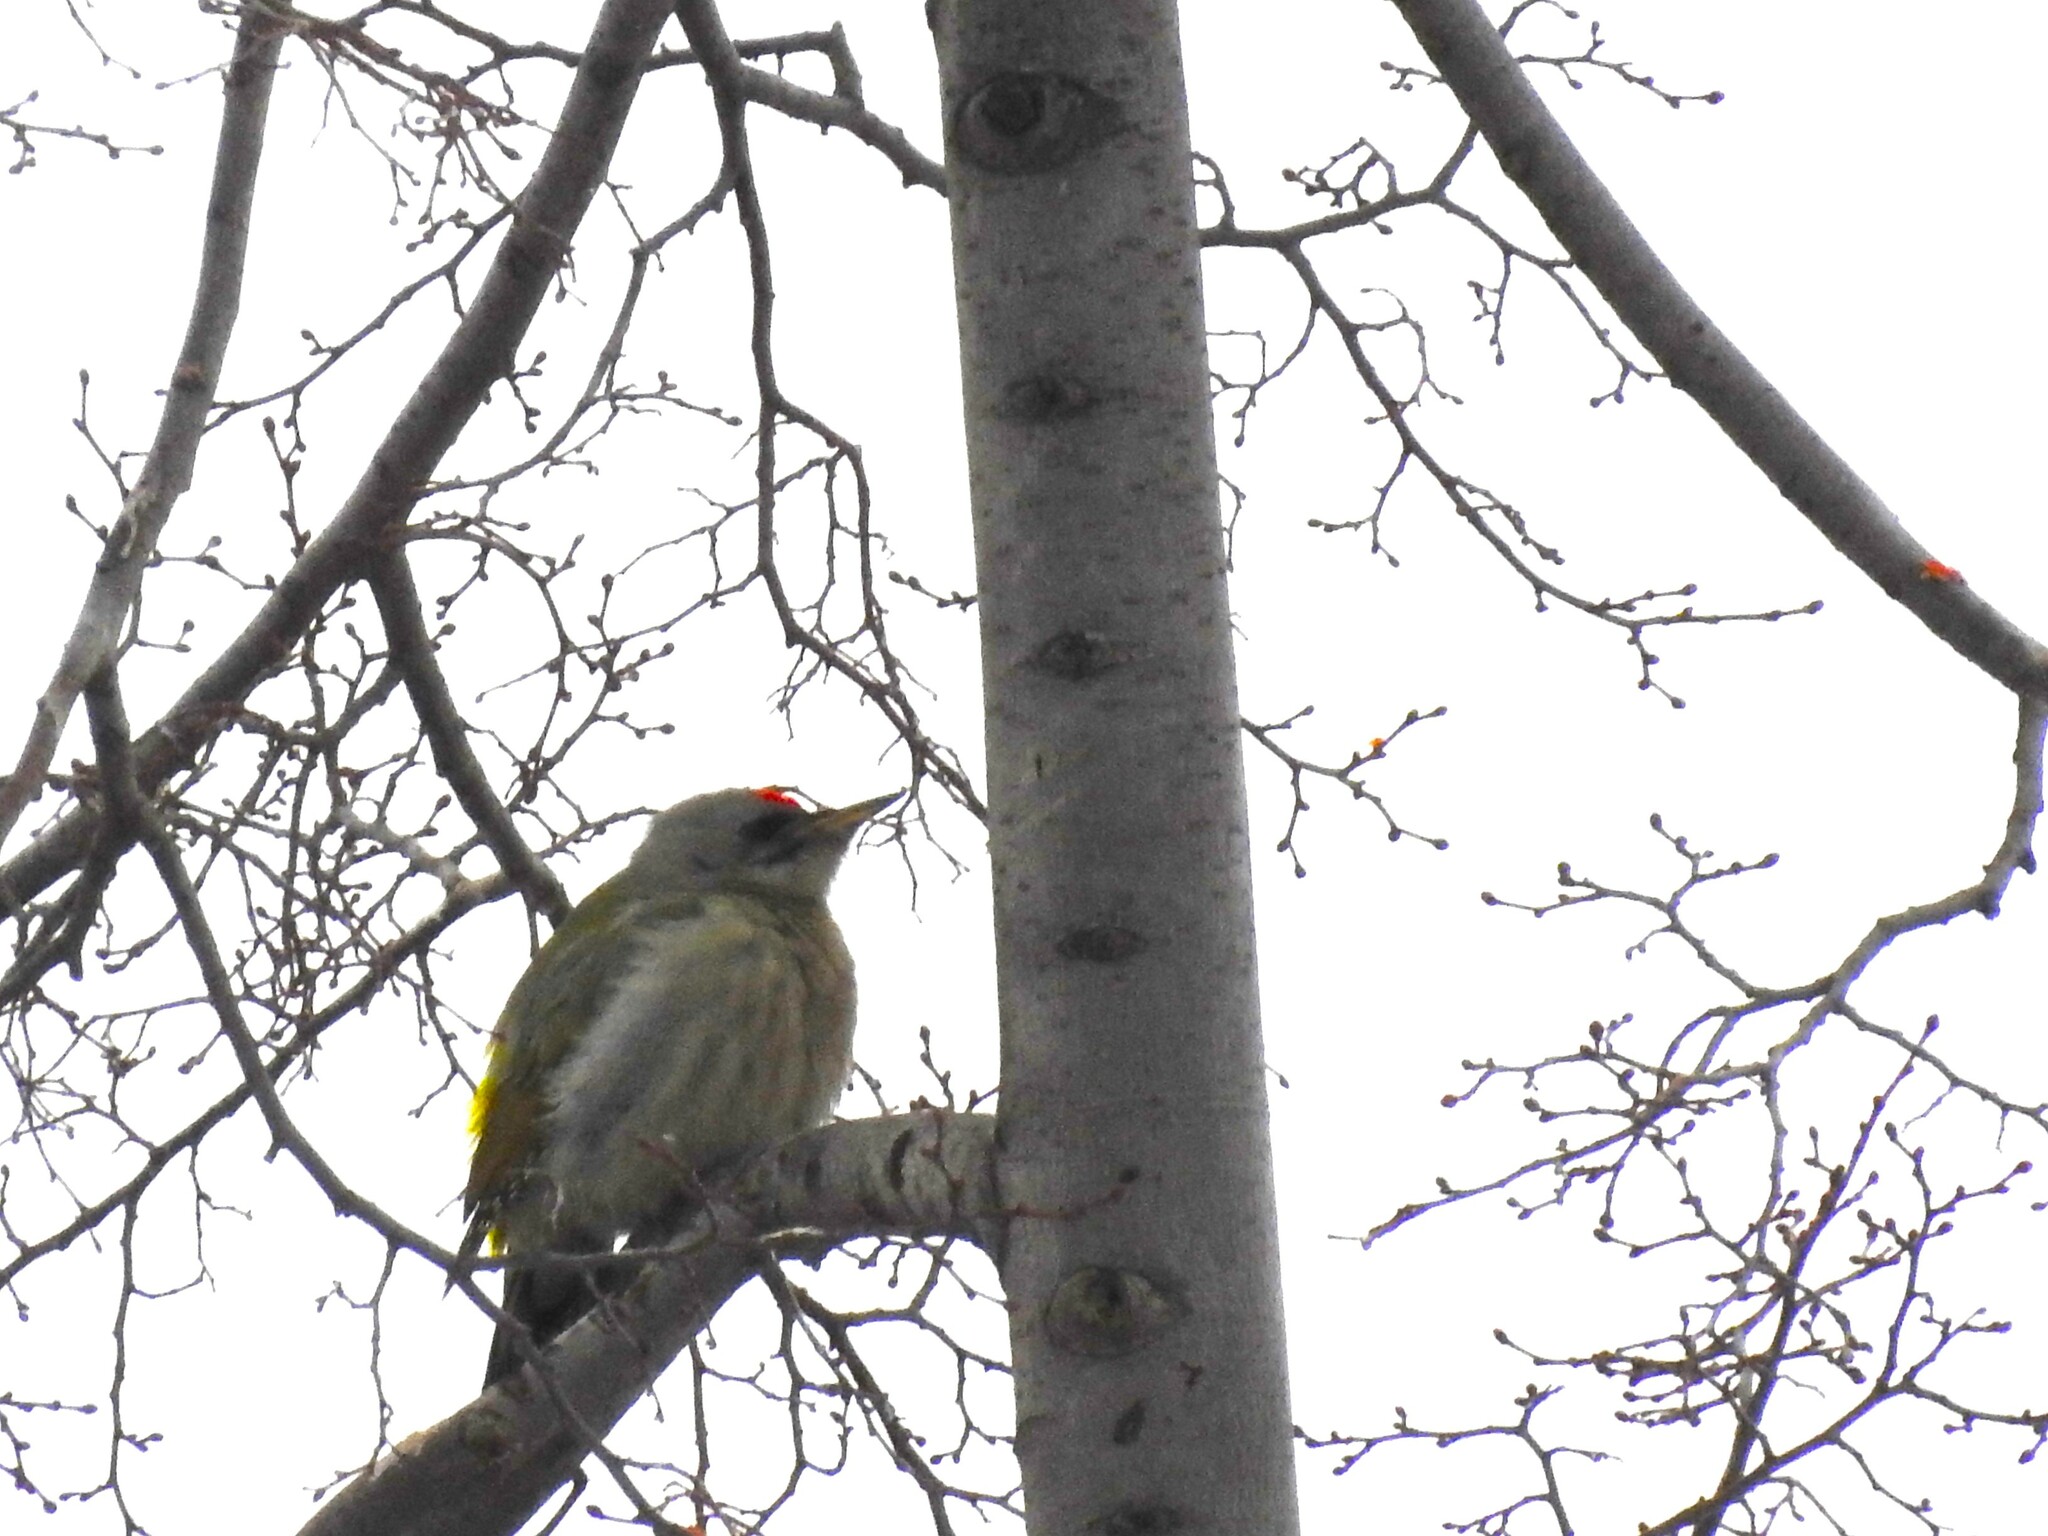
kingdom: Animalia
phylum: Chordata
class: Aves
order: Piciformes
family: Picidae
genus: Picus
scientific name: Picus canus
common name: Grey-headed woodpecker
